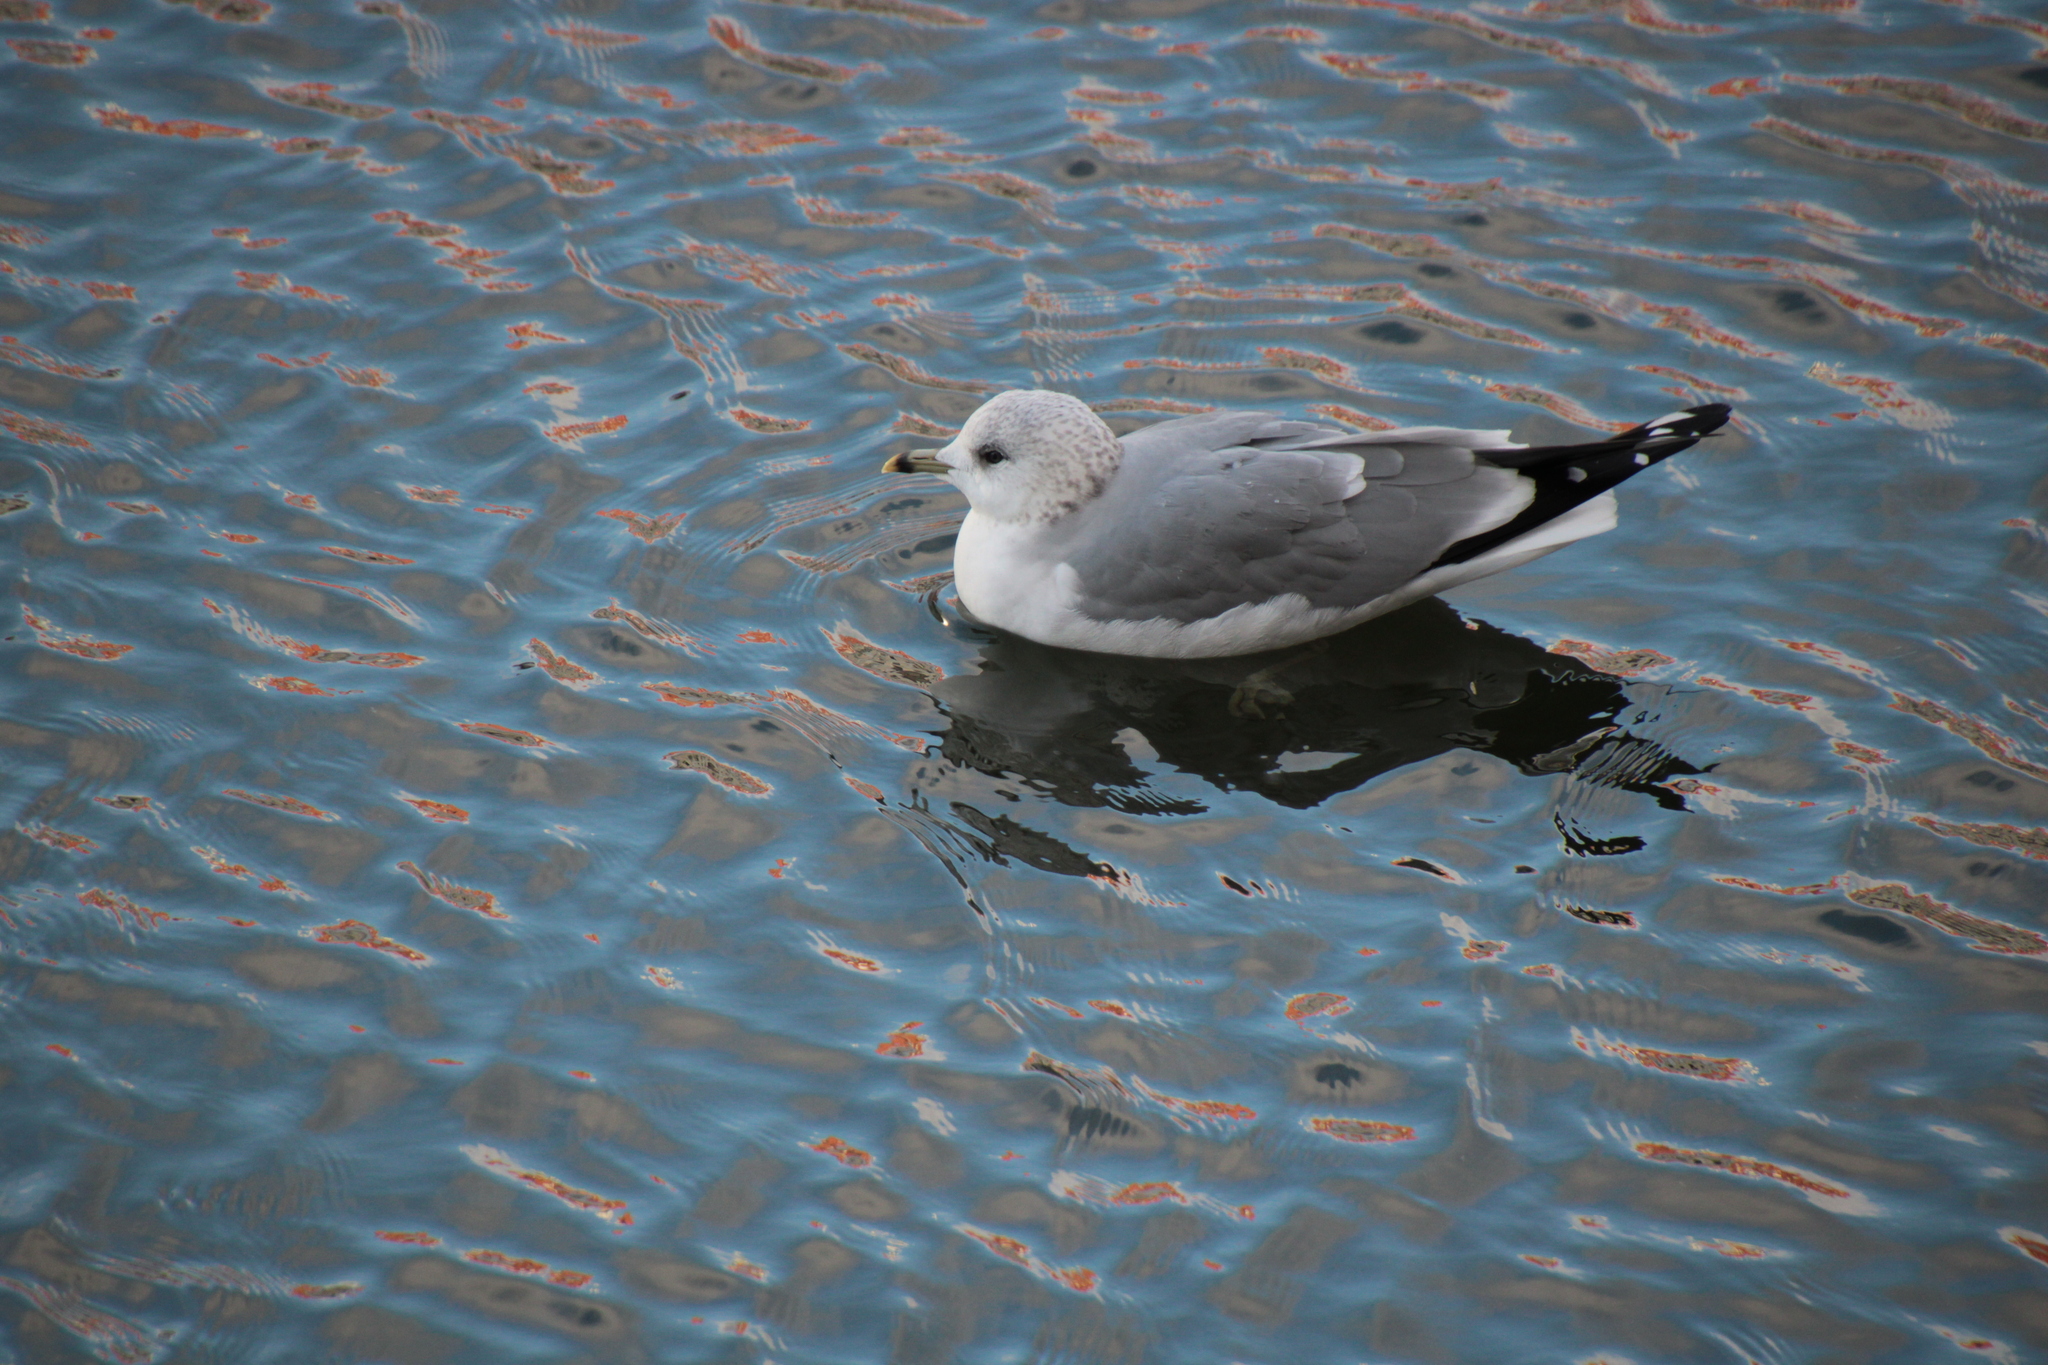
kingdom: Animalia
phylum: Chordata
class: Aves
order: Charadriiformes
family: Laridae
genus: Larus
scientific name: Larus canus
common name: Mew gull
